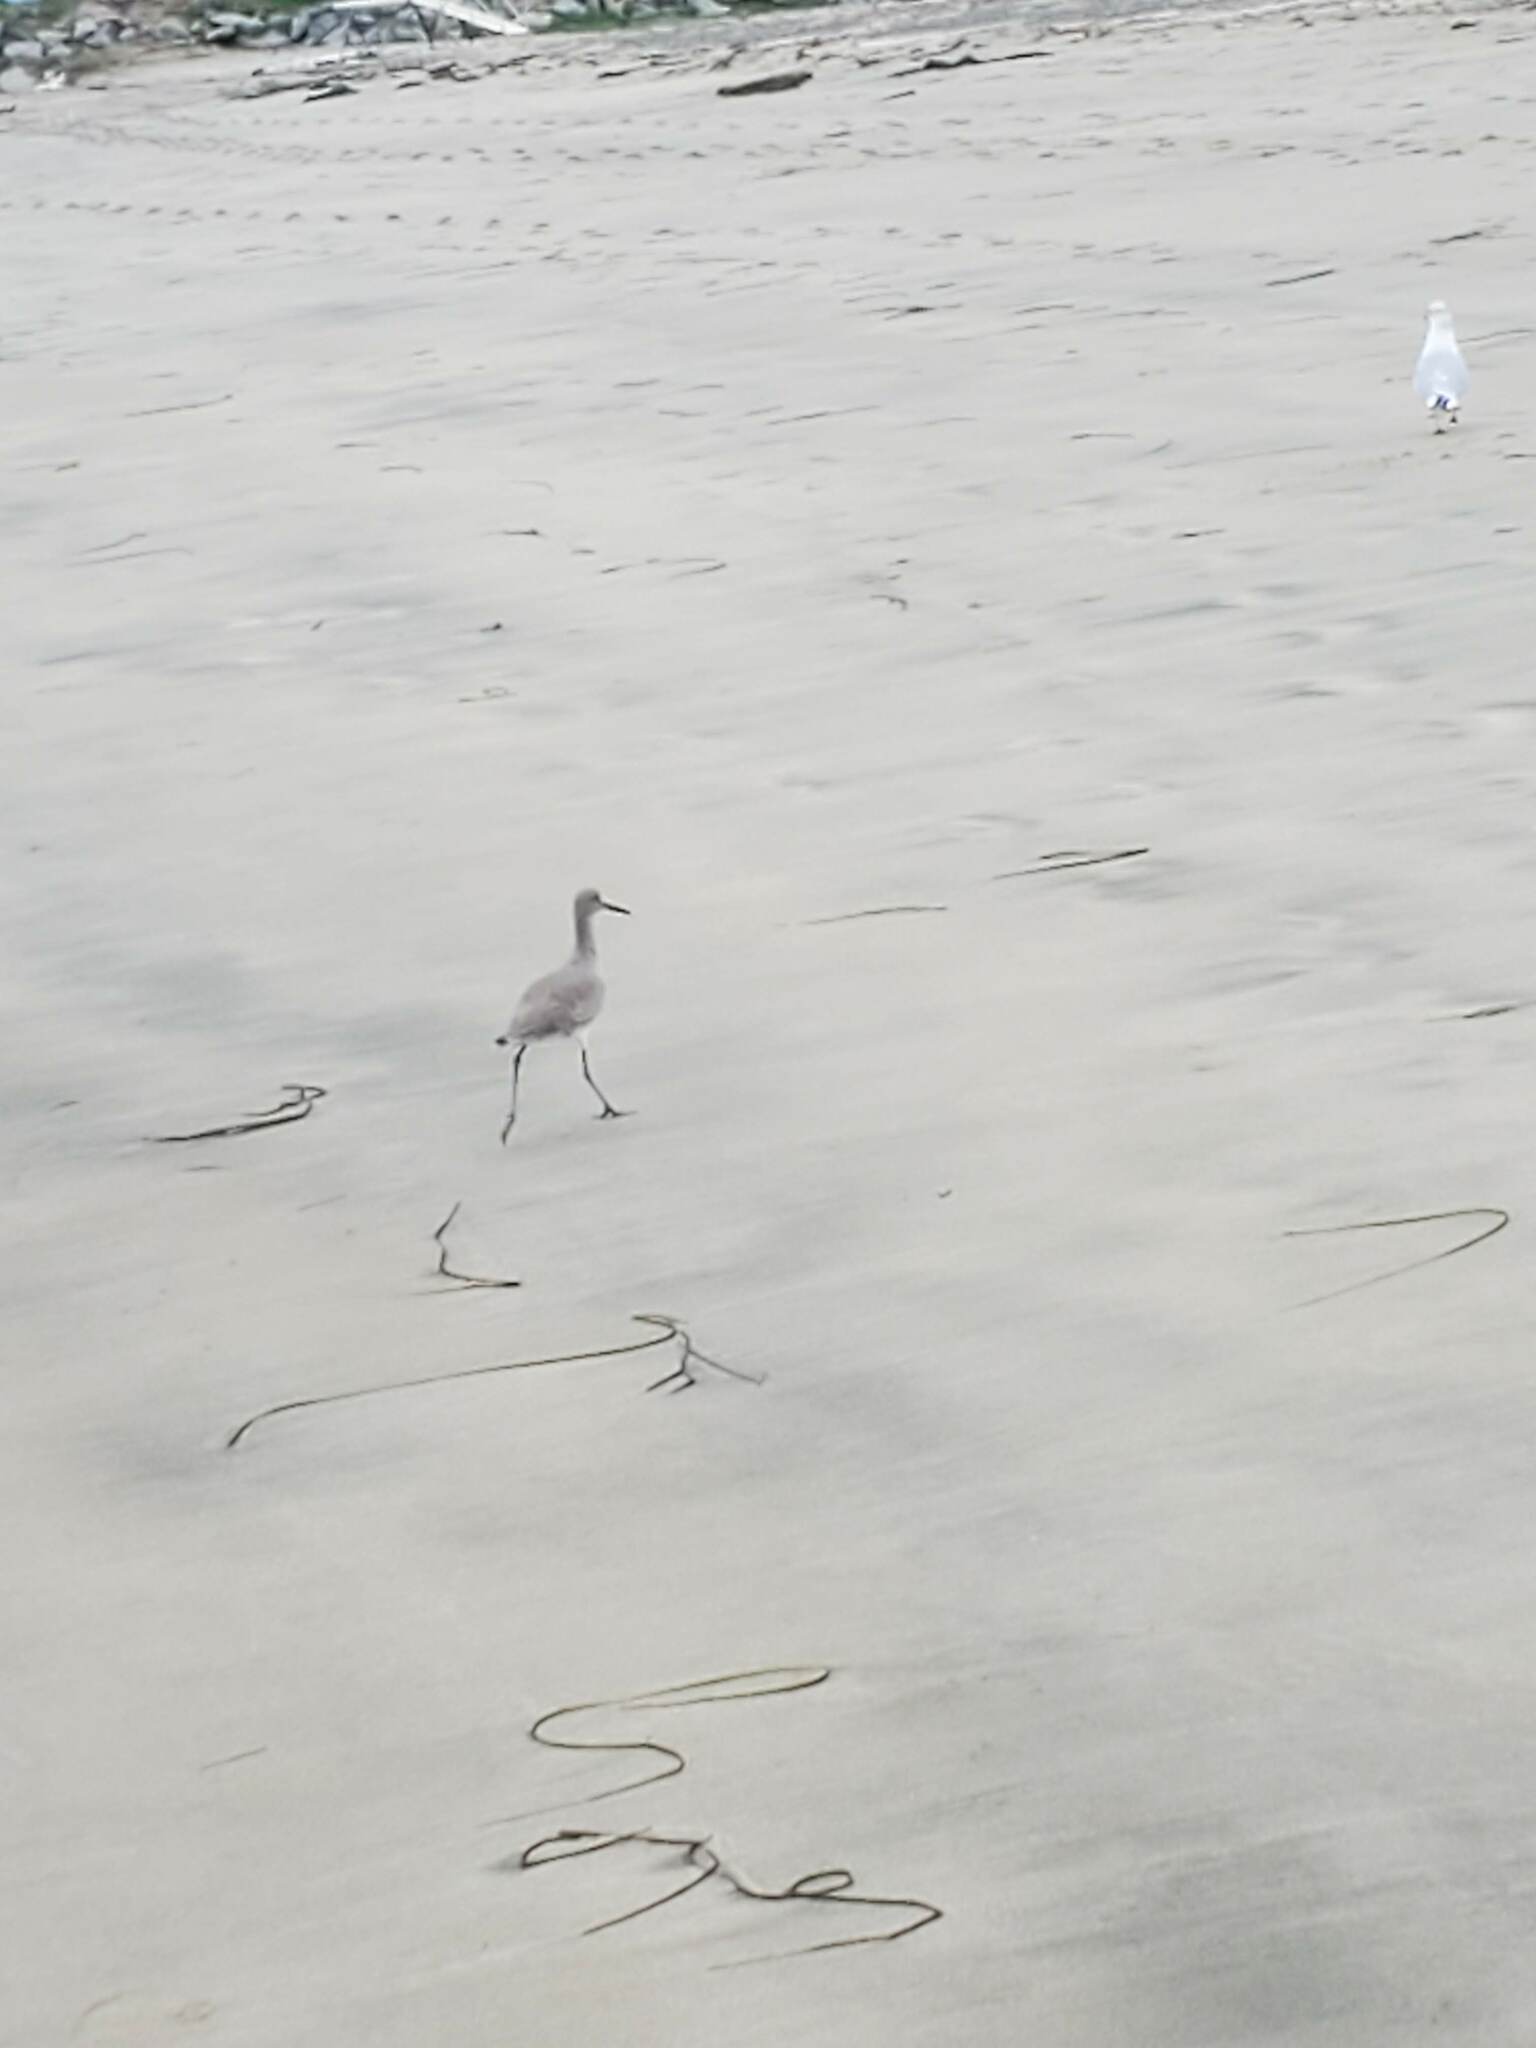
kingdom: Animalia
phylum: Chordata
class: Aves
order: Charadriiformes
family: Scolopacidae
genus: Tringa
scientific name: Tringa semipalmata
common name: Willet
